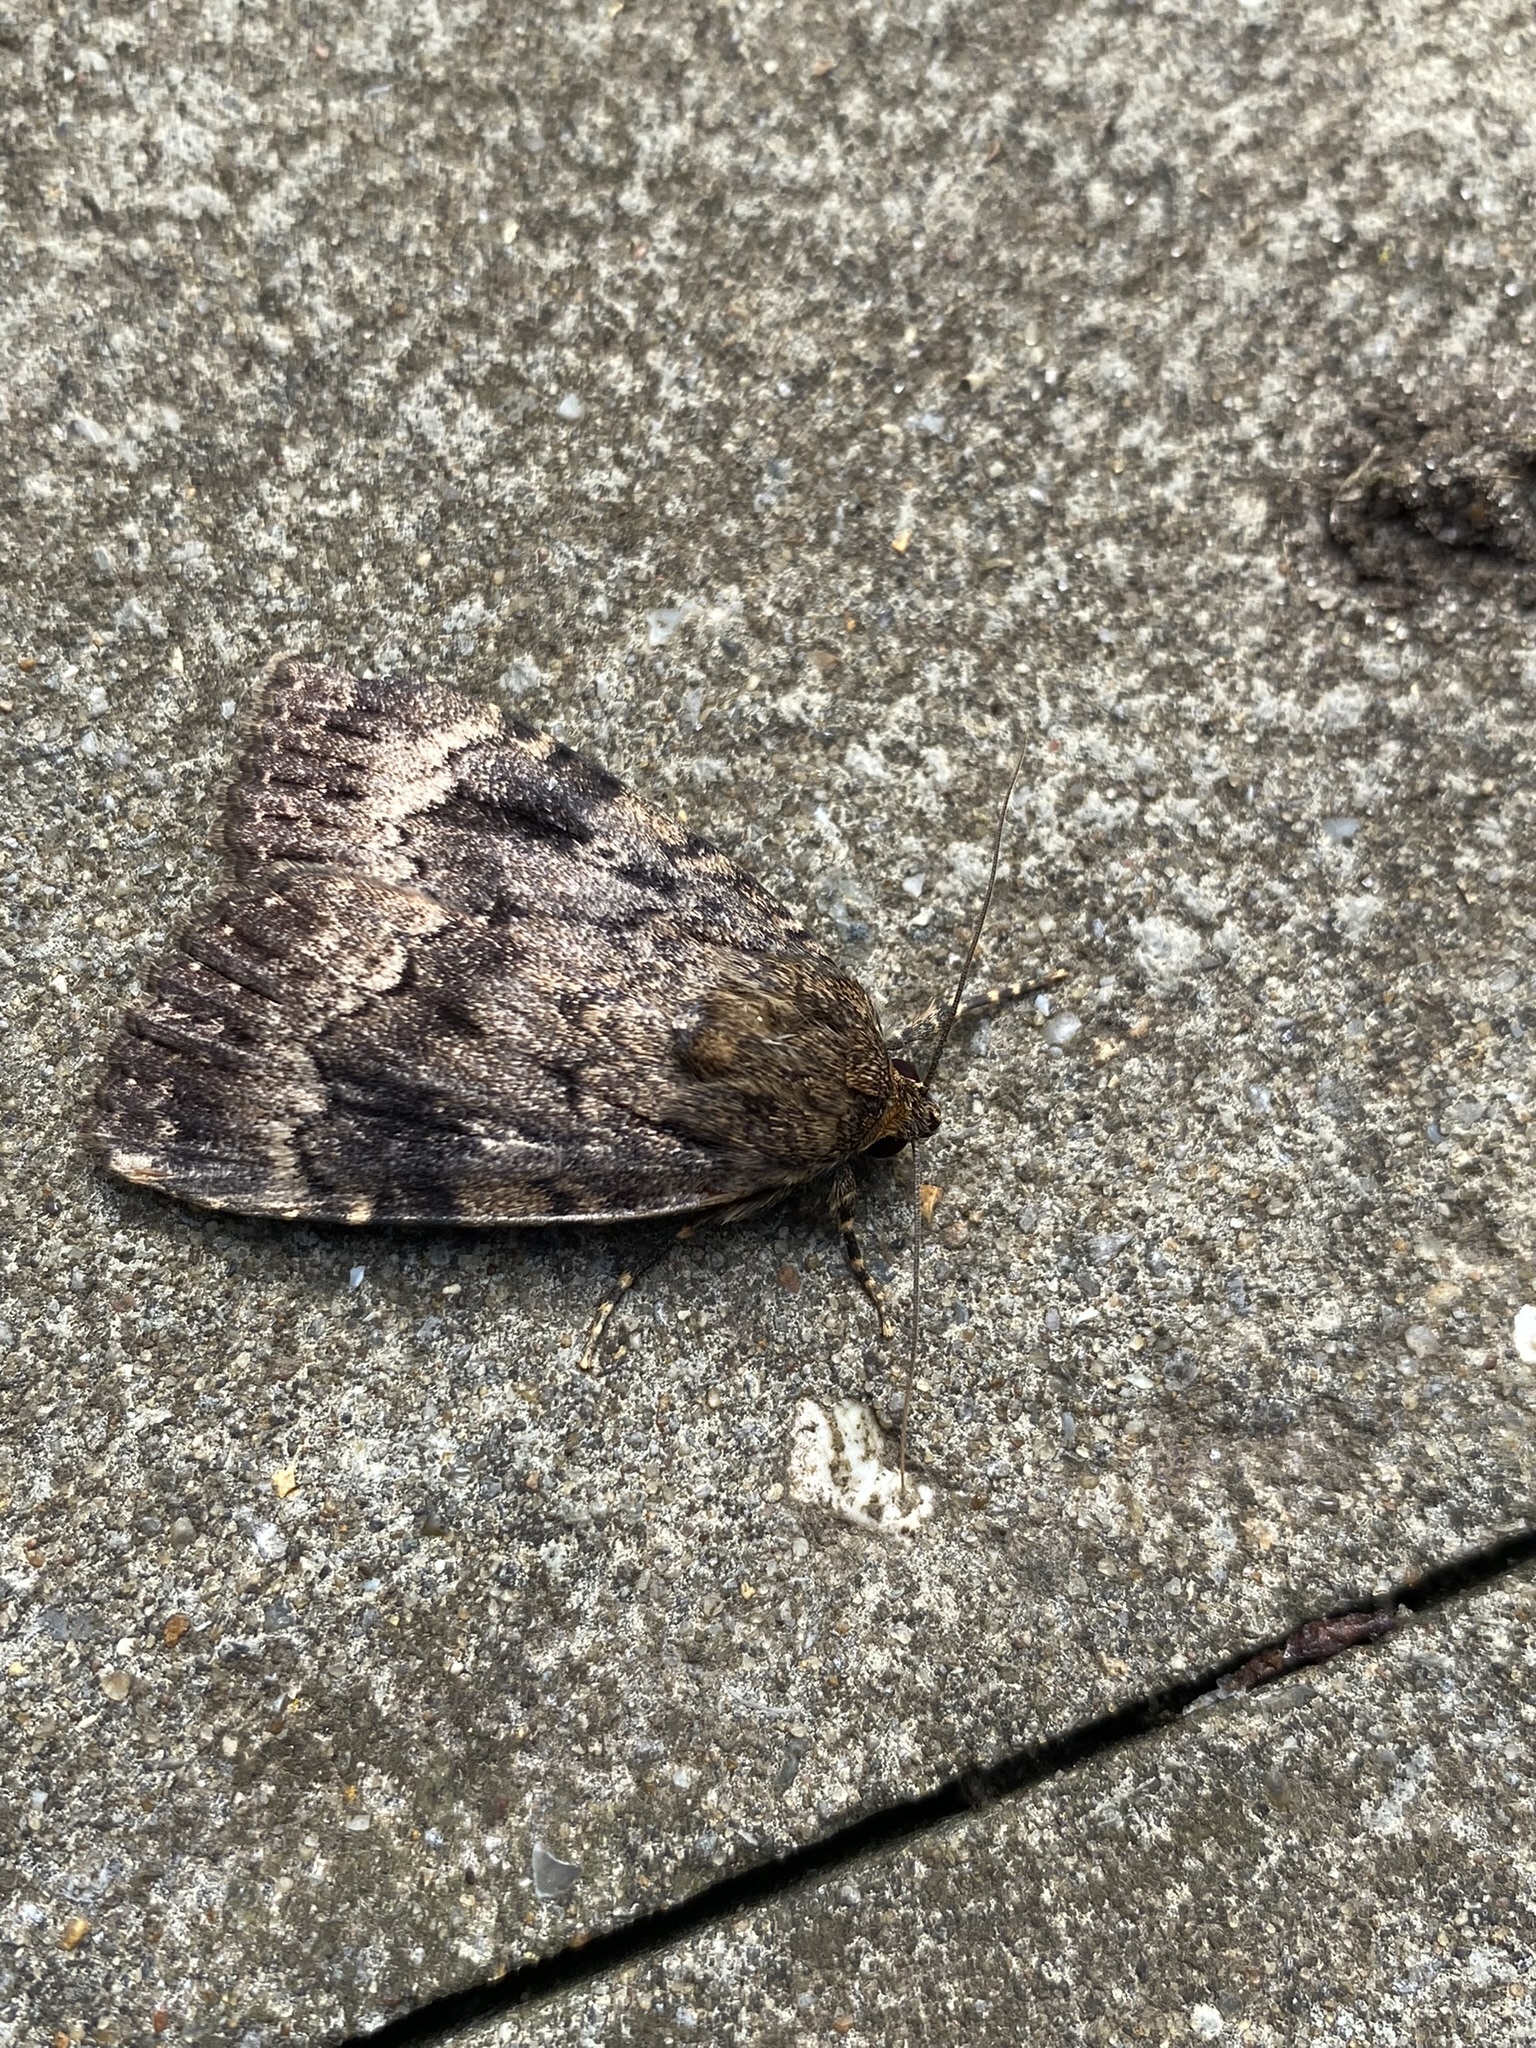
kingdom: Animalia
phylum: Arthropoda
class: Insecta
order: Lepidoptera
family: Noctuidae
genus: Amphipyra
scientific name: Amphipyra berbera
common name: Svensson's copper underwing
